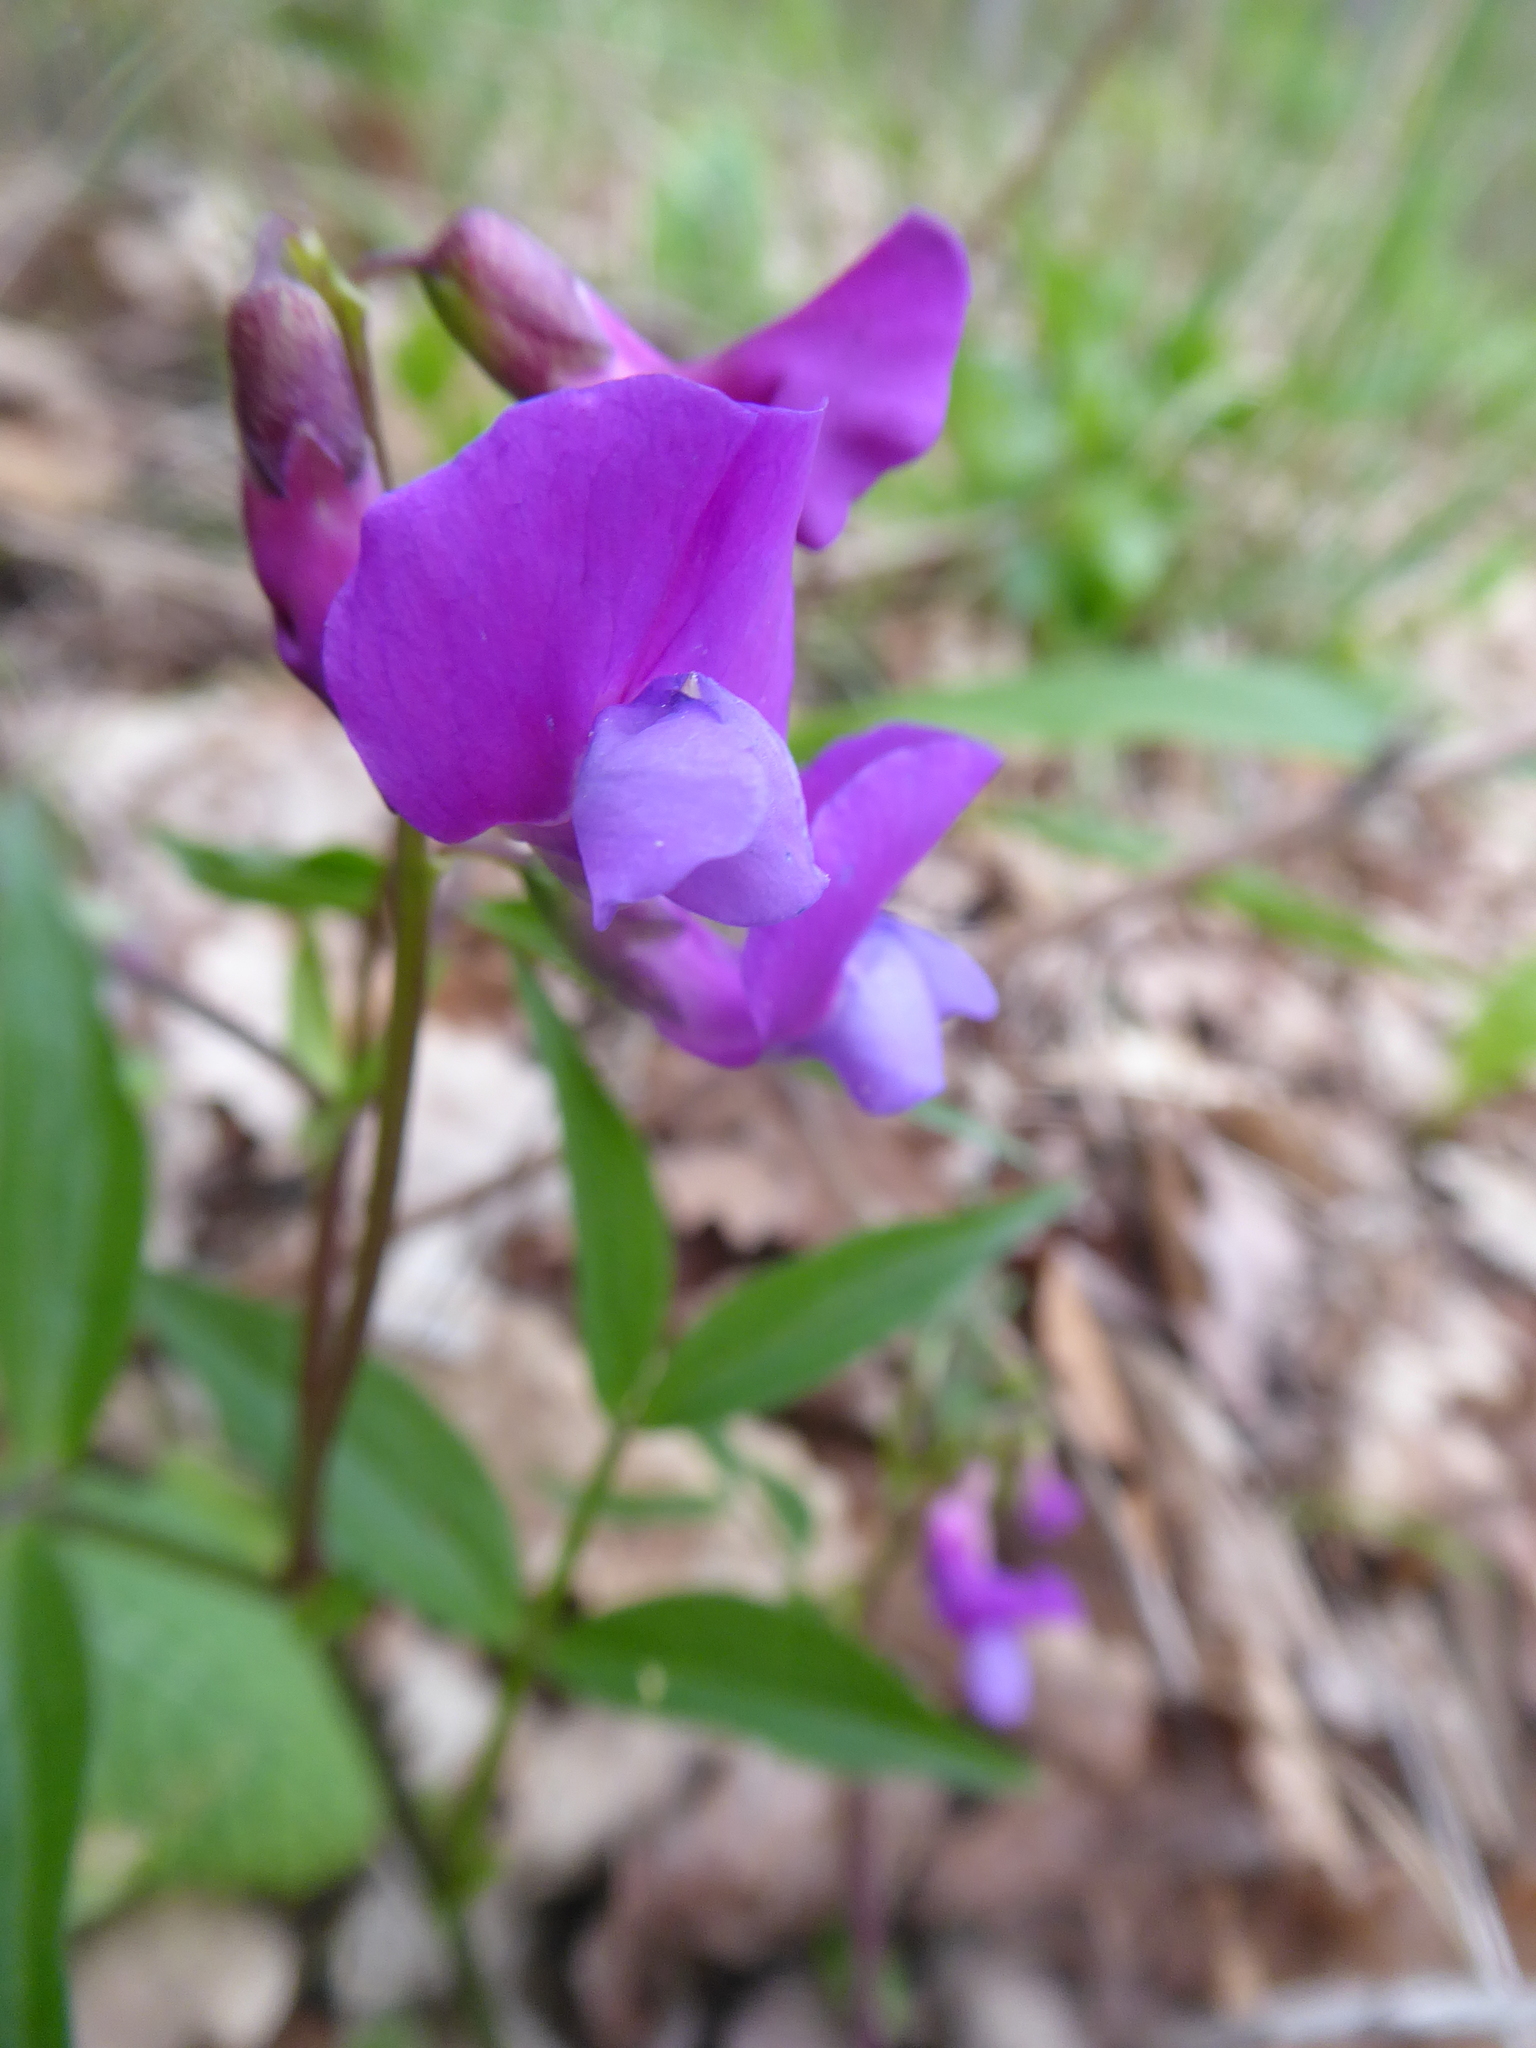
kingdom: Plantae
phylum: Tracheophyta
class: Magnoliopsida
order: Fabales
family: Fabaceae
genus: Lathyrus
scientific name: Lathyrus vernus
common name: Spring pea
